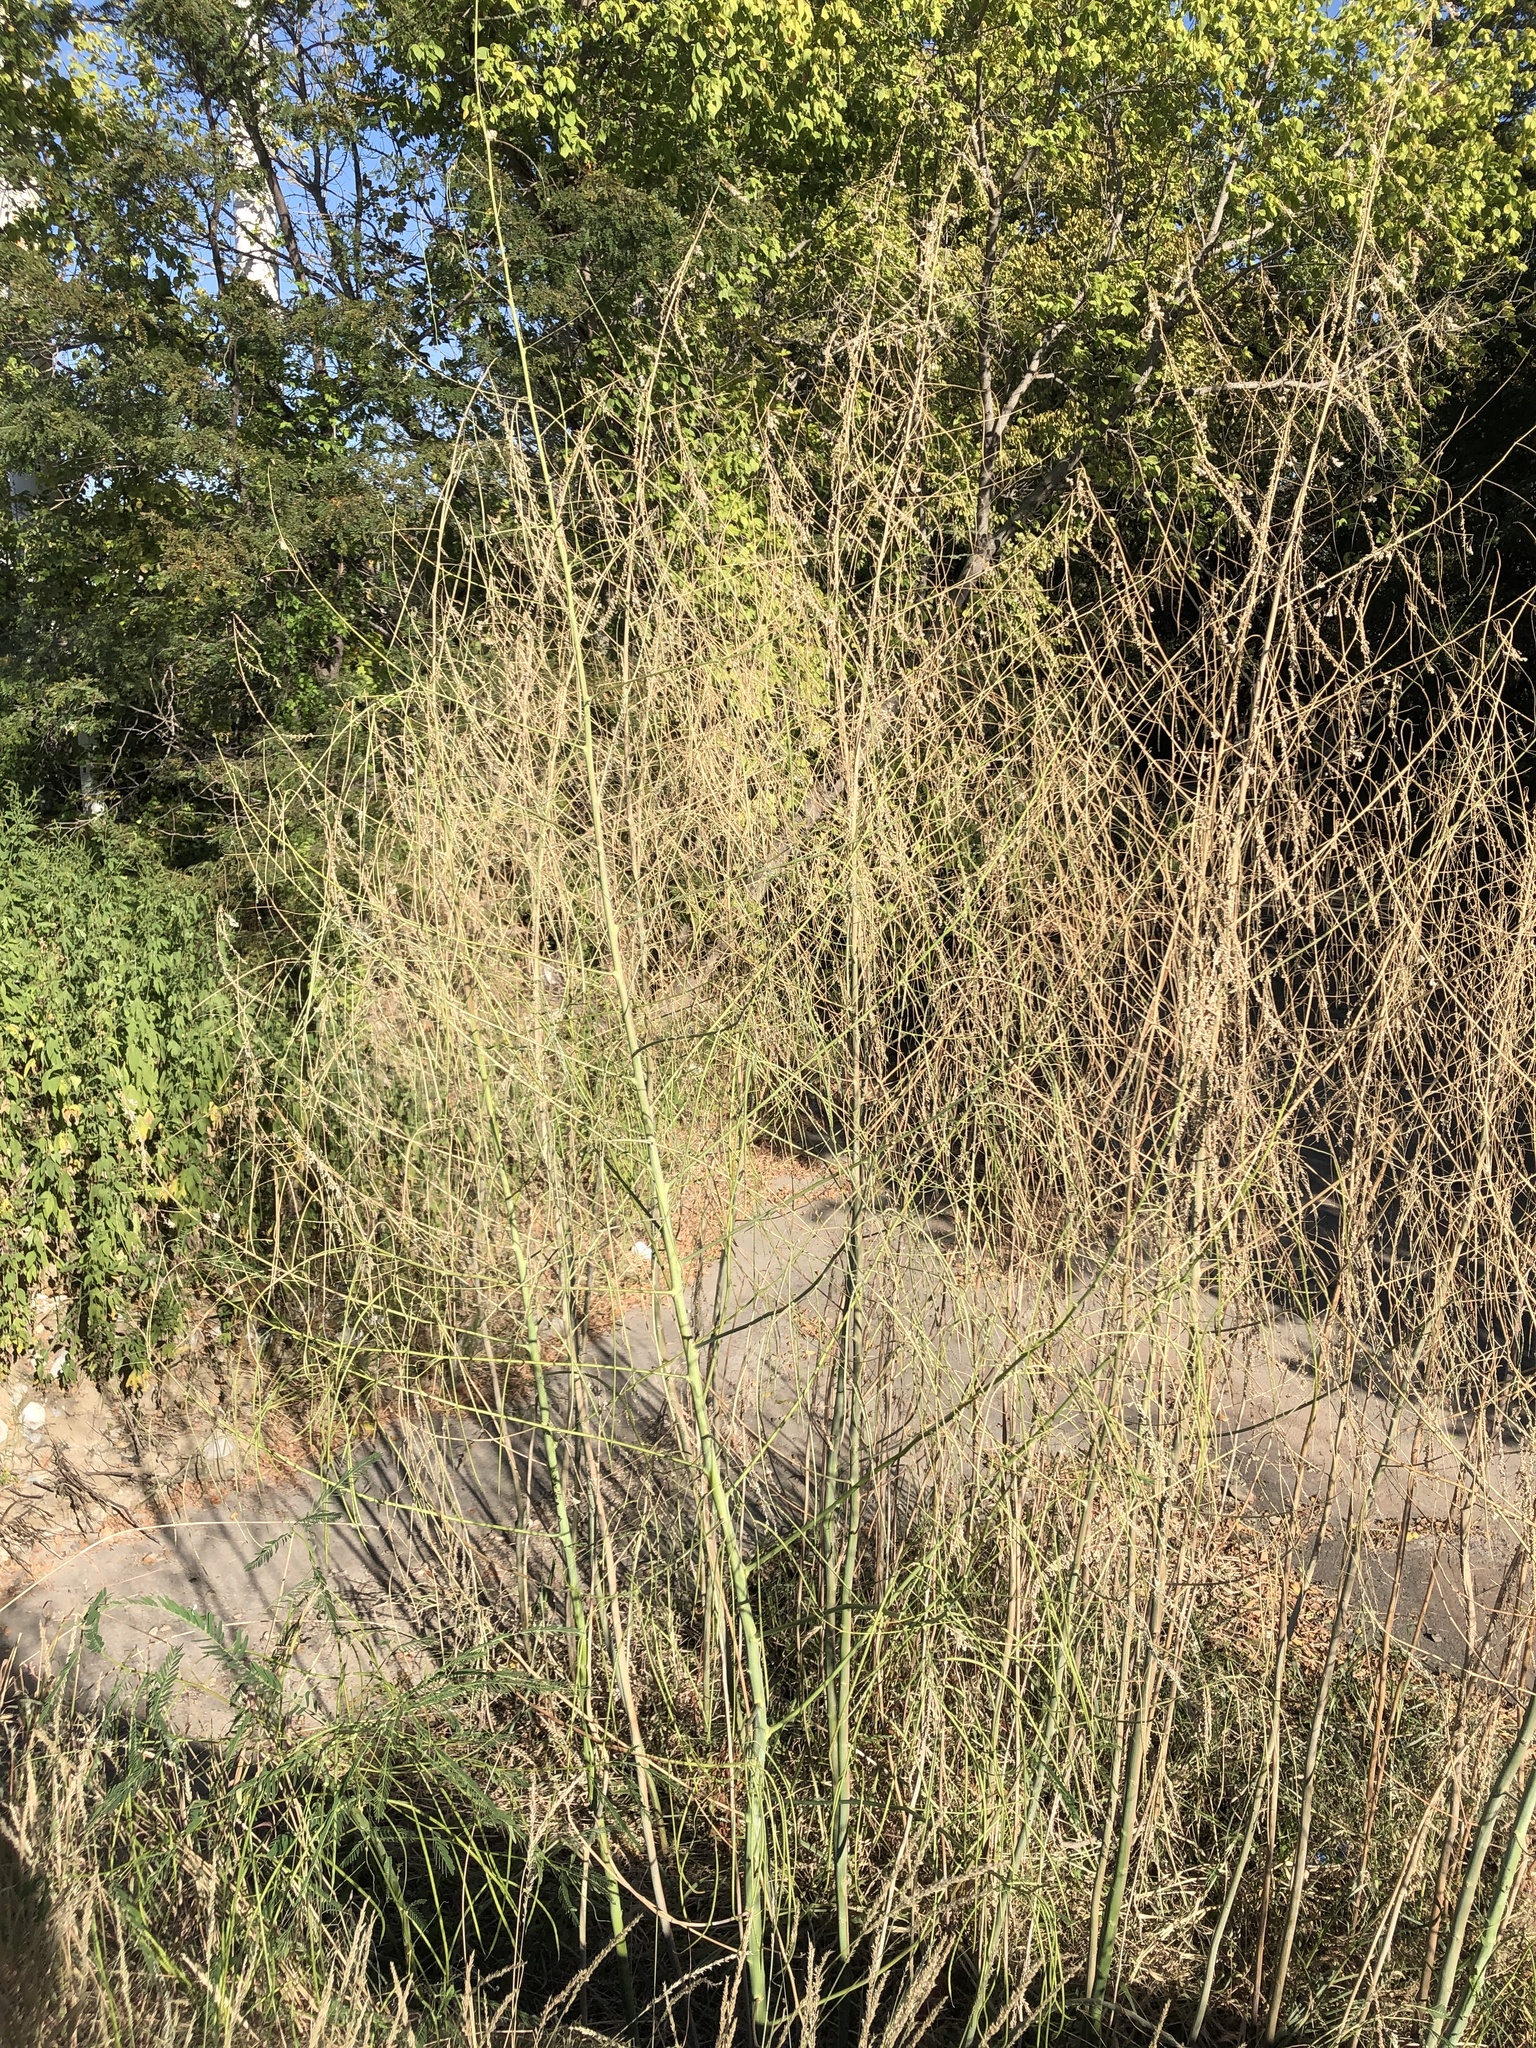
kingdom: Plantae
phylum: Tracheophyta
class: Magnoliopsida
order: Fabales
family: Fabaceae
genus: Sesbania
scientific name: Sesbania herbacea
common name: Bigpod sesbania
